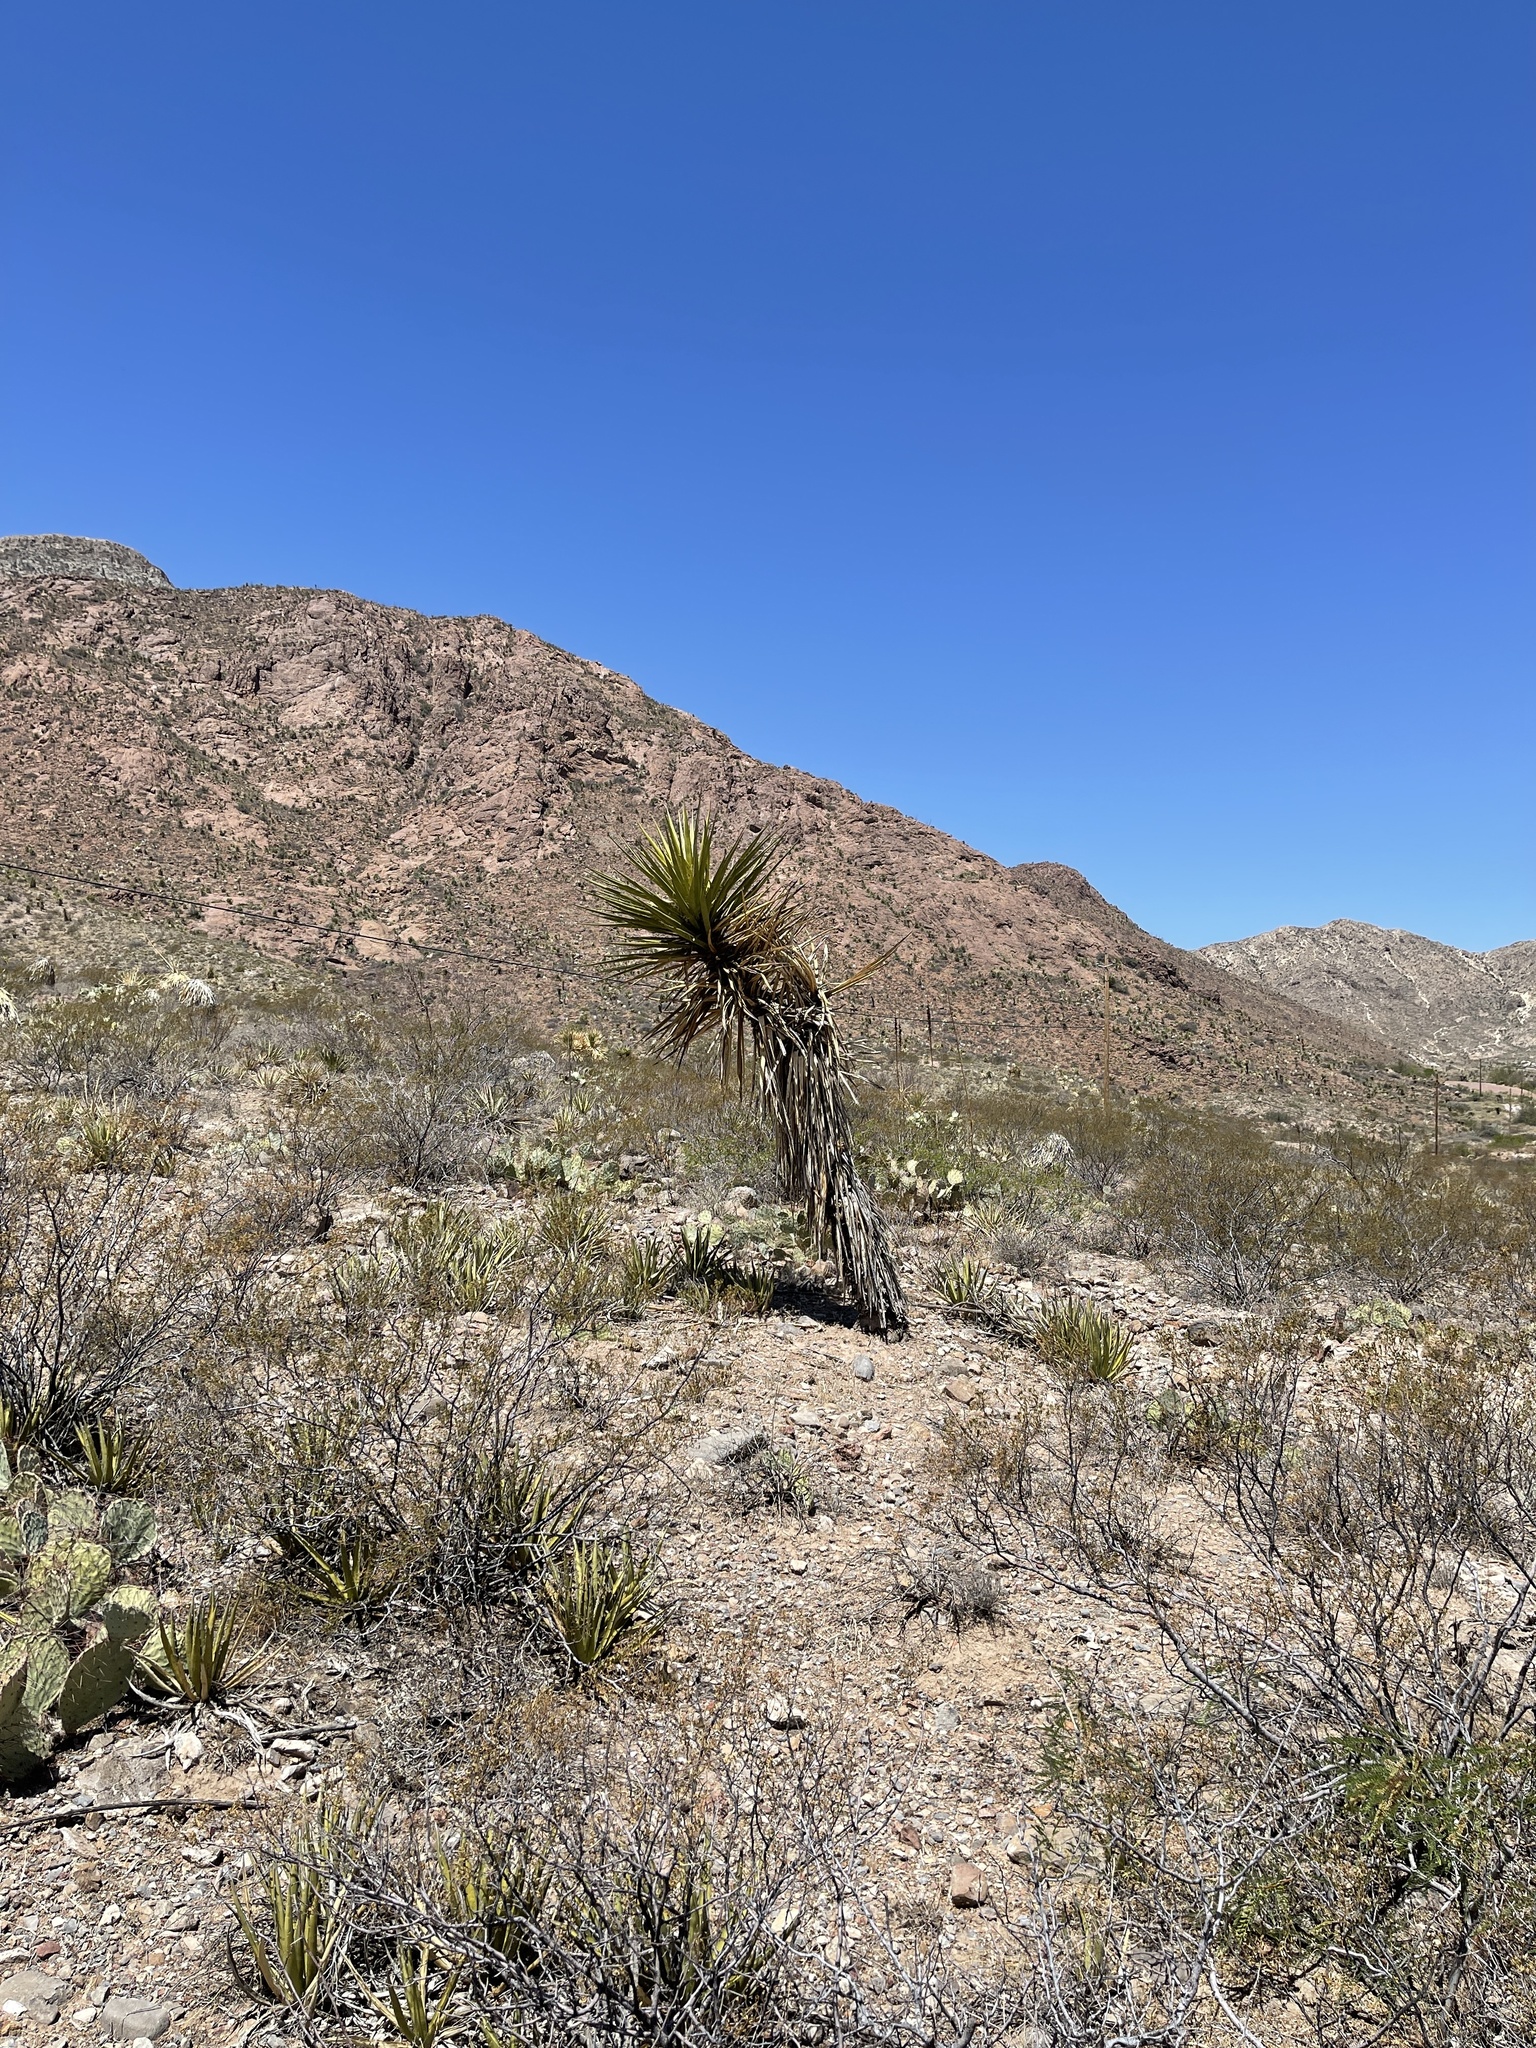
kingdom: Plantae
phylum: Tracheophyta
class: Liliopsida
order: Asparagales
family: Asparagaceae
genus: Yucca
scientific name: Yucca treculiana
